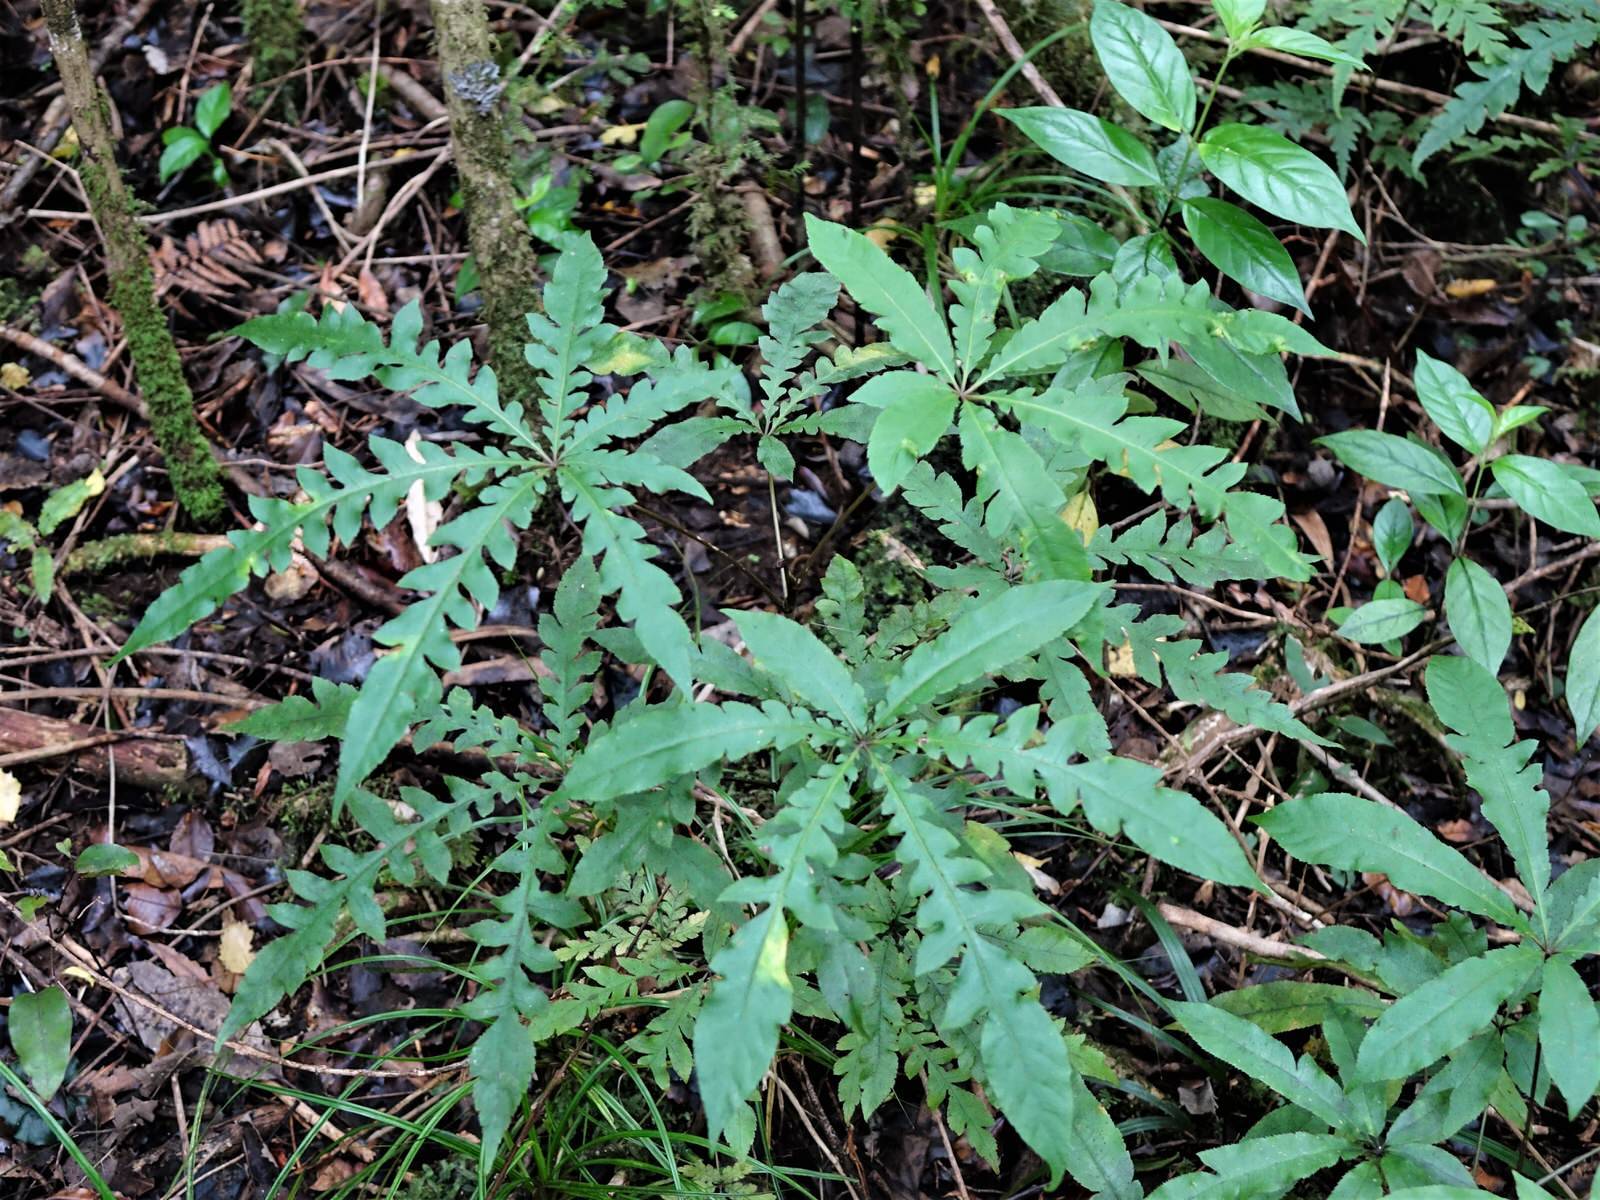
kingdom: Plantae
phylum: Tracheophyta
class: Magnoliopsida
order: Apiales
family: Araliaceae
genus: Schefflera
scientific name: Schefflera digitata
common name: Pate
